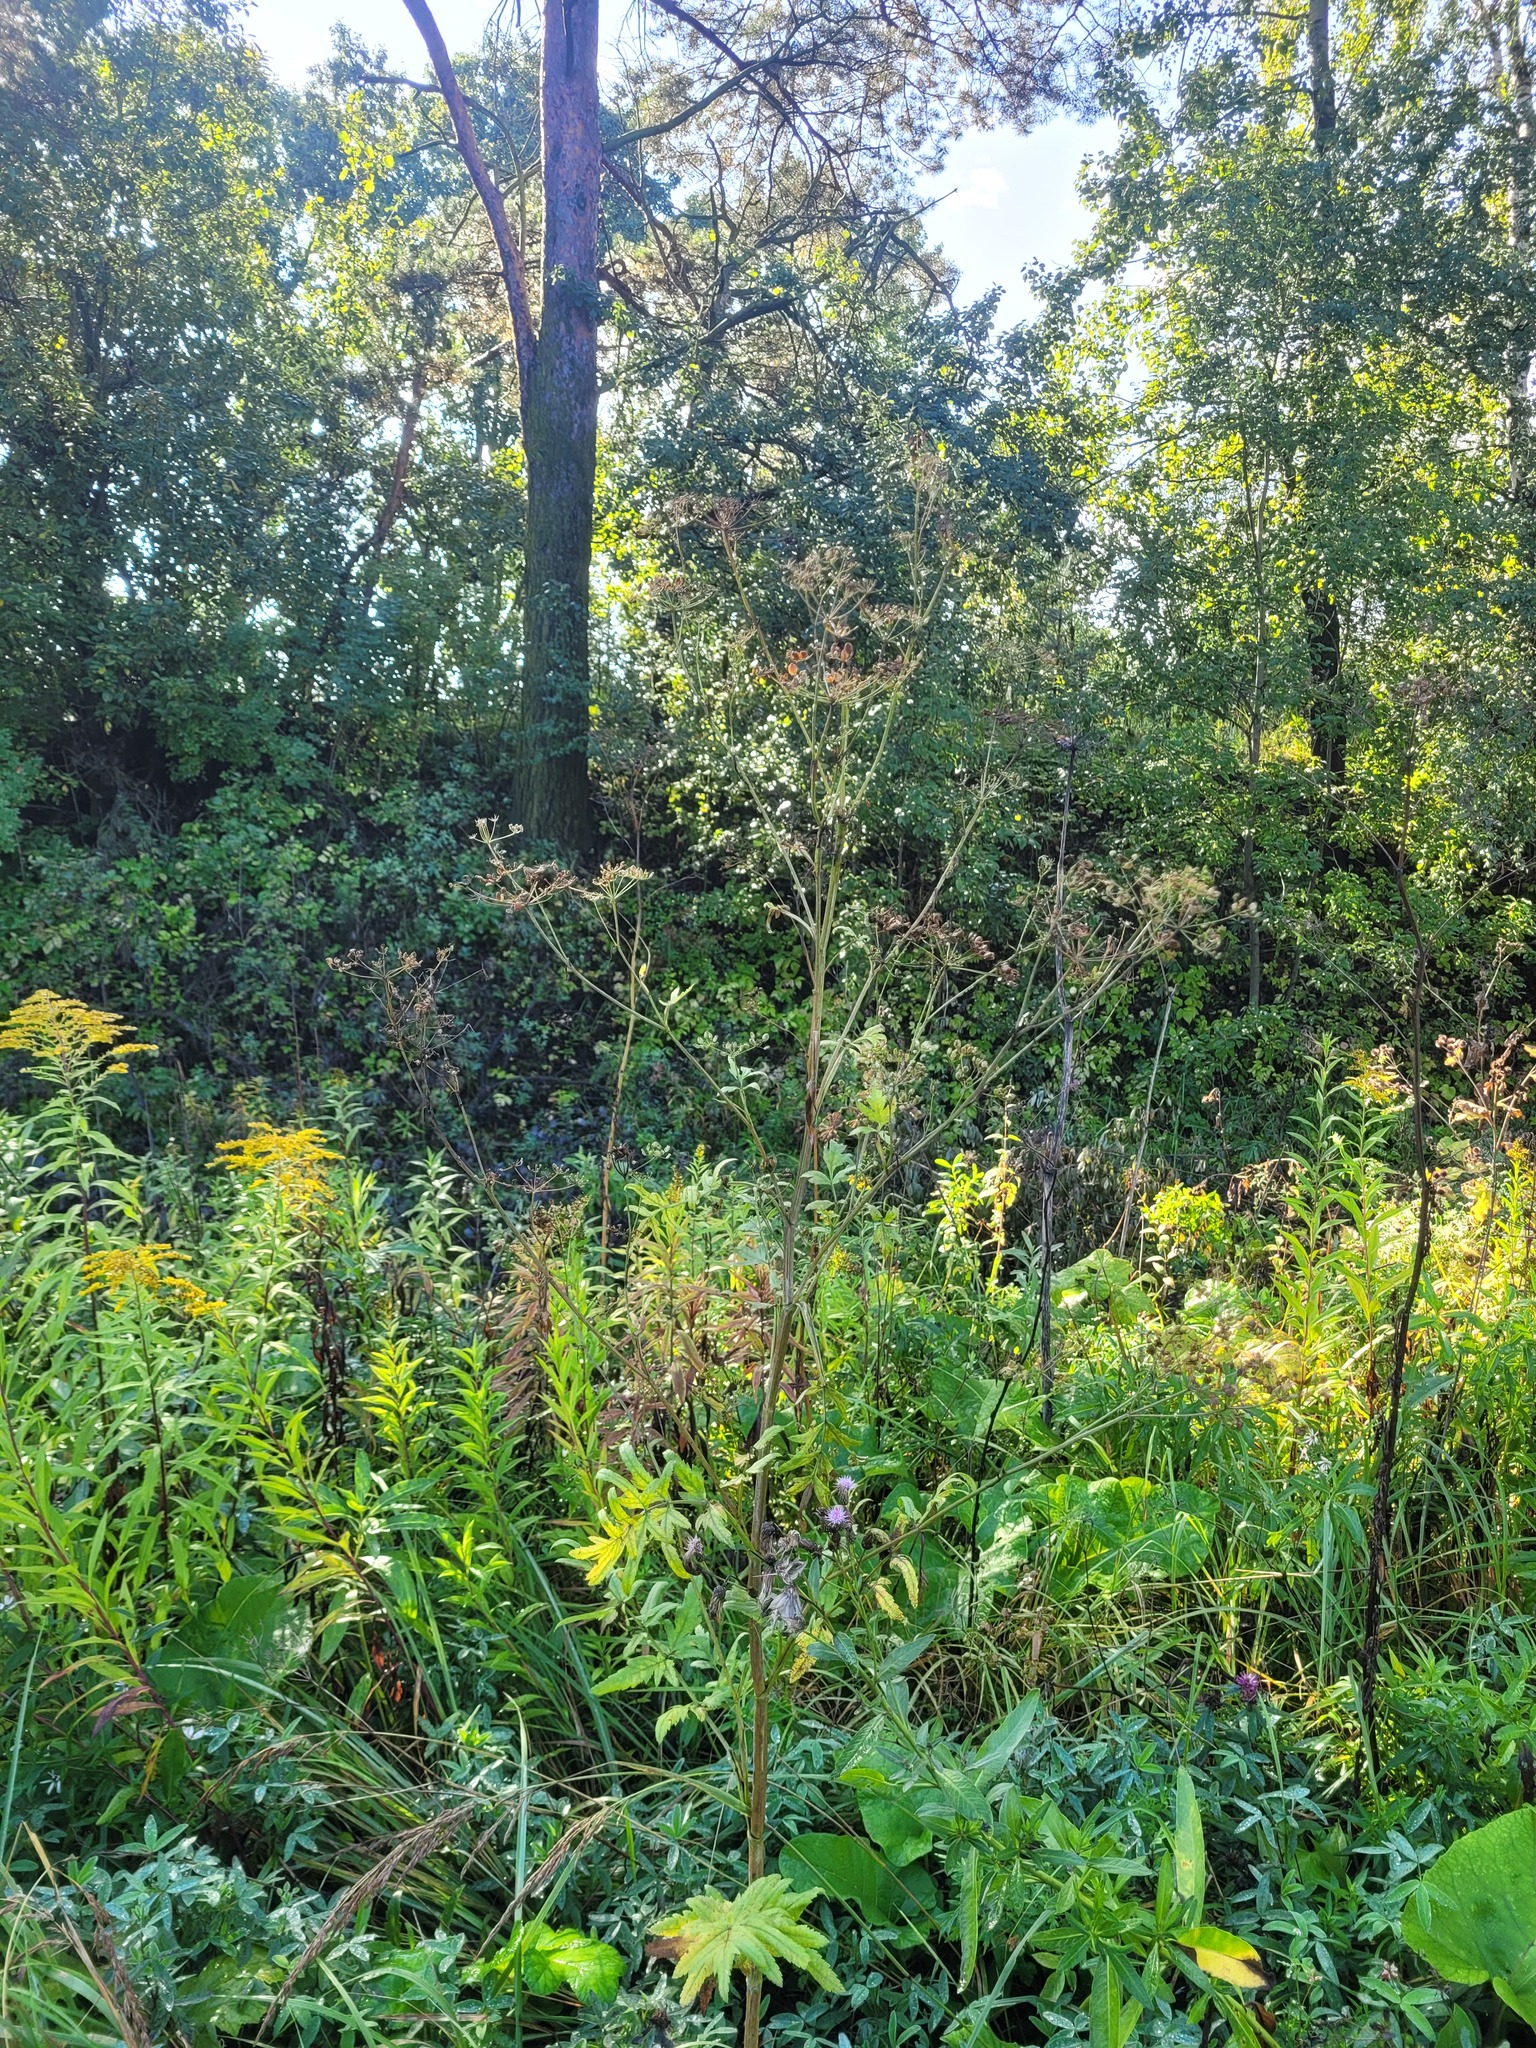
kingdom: Plantae
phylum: Tracheophyta
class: Magnoliopsida
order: Apiales
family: Apiaceae
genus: Pastinaca
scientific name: Pastinaca sativa
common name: Wild parsnip
